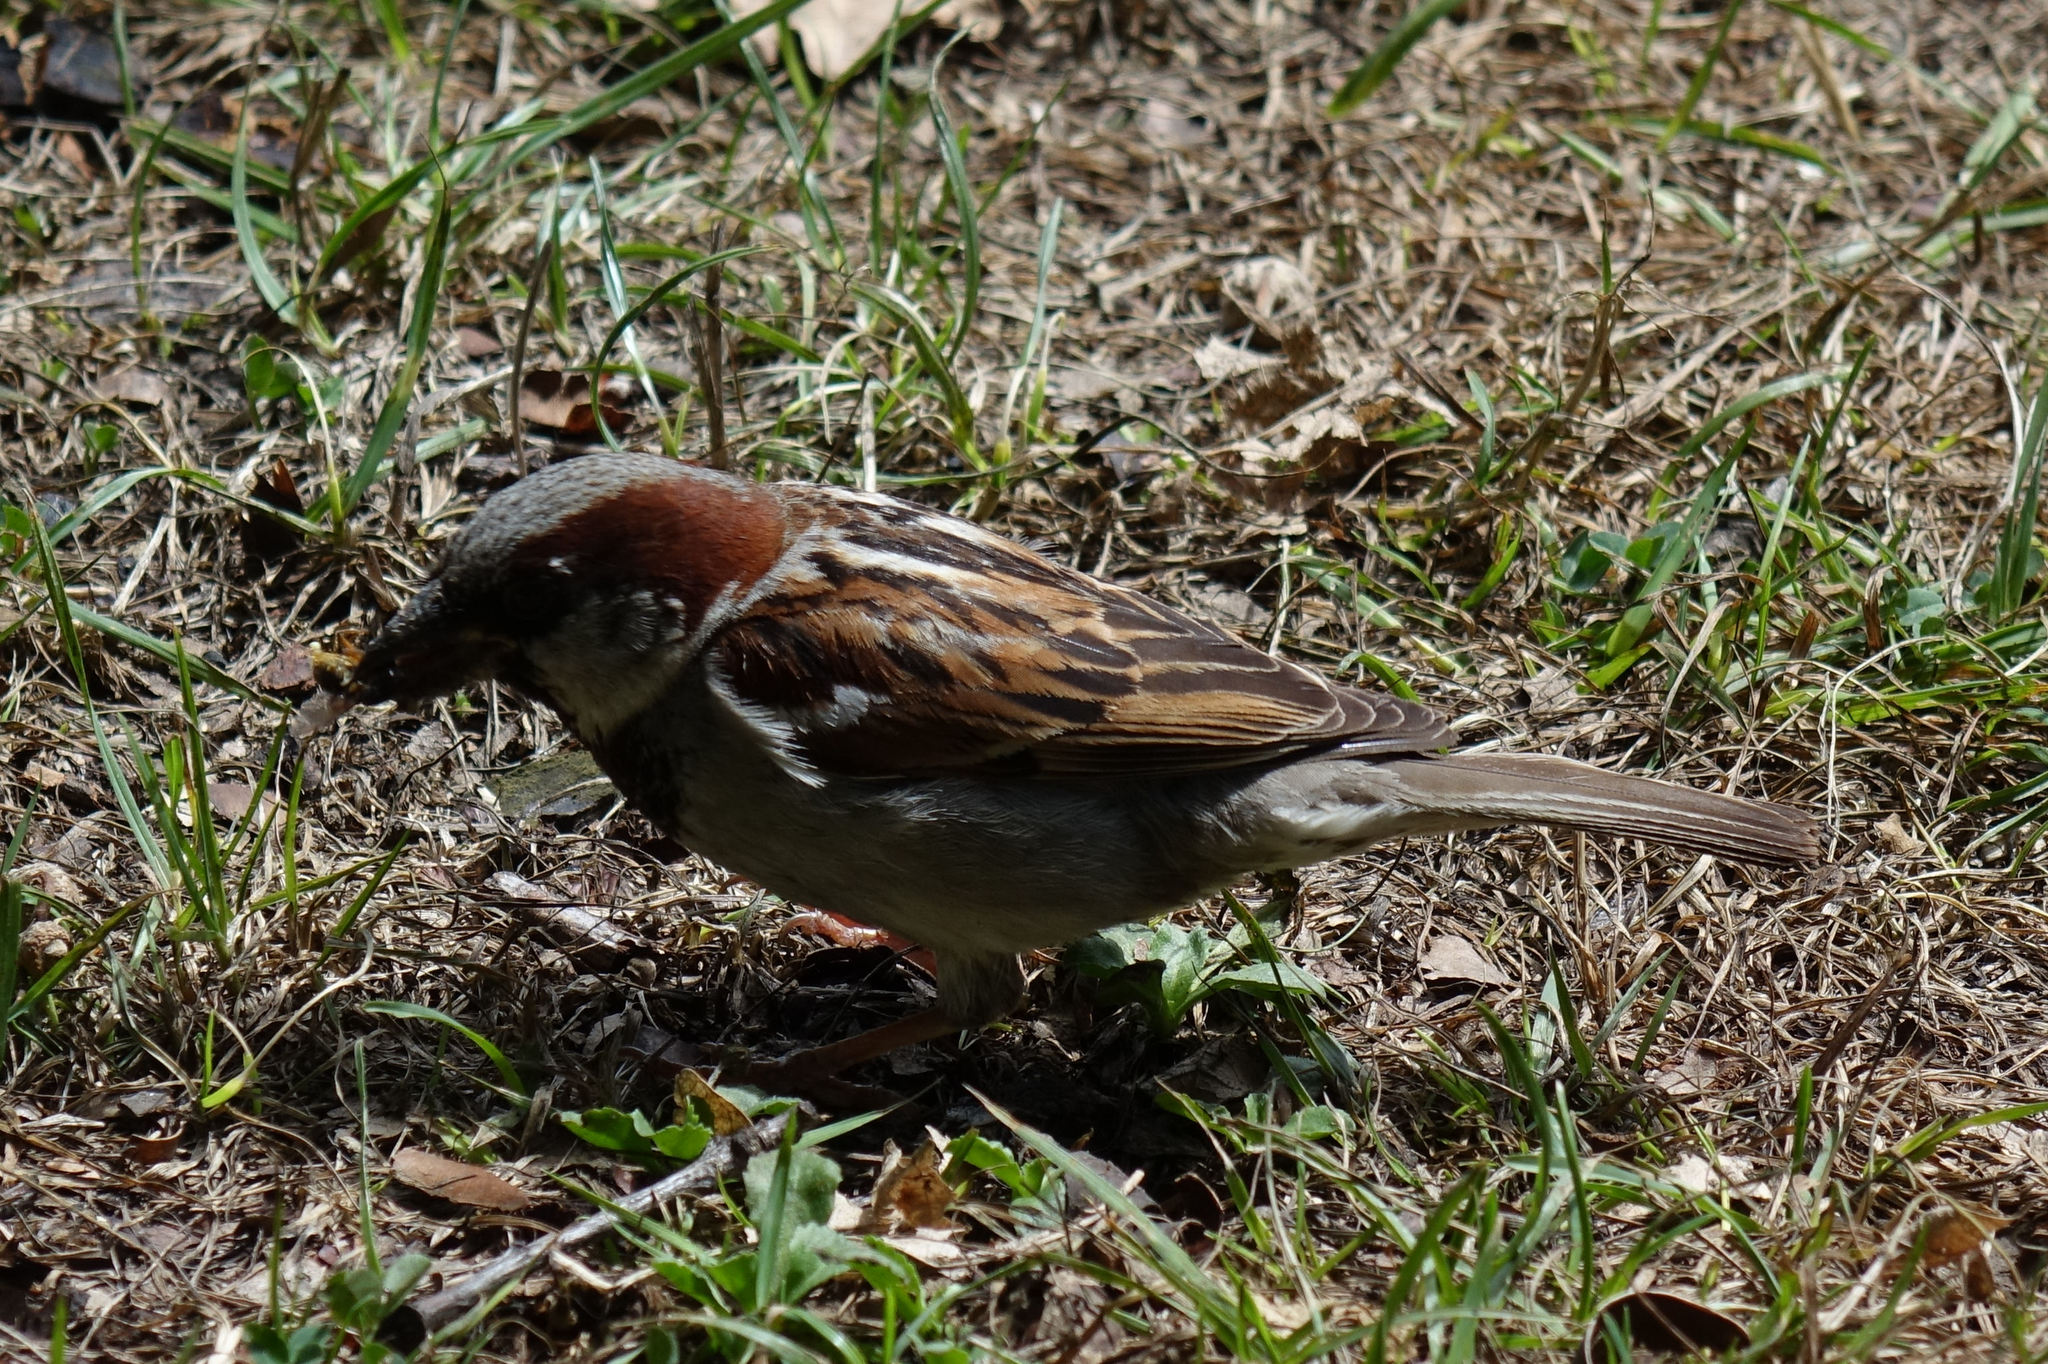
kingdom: Animalia
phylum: Chordata
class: Aves
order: Passeriformes
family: Passeridae
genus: Passer
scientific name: Passer domesticus
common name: House sparrow
